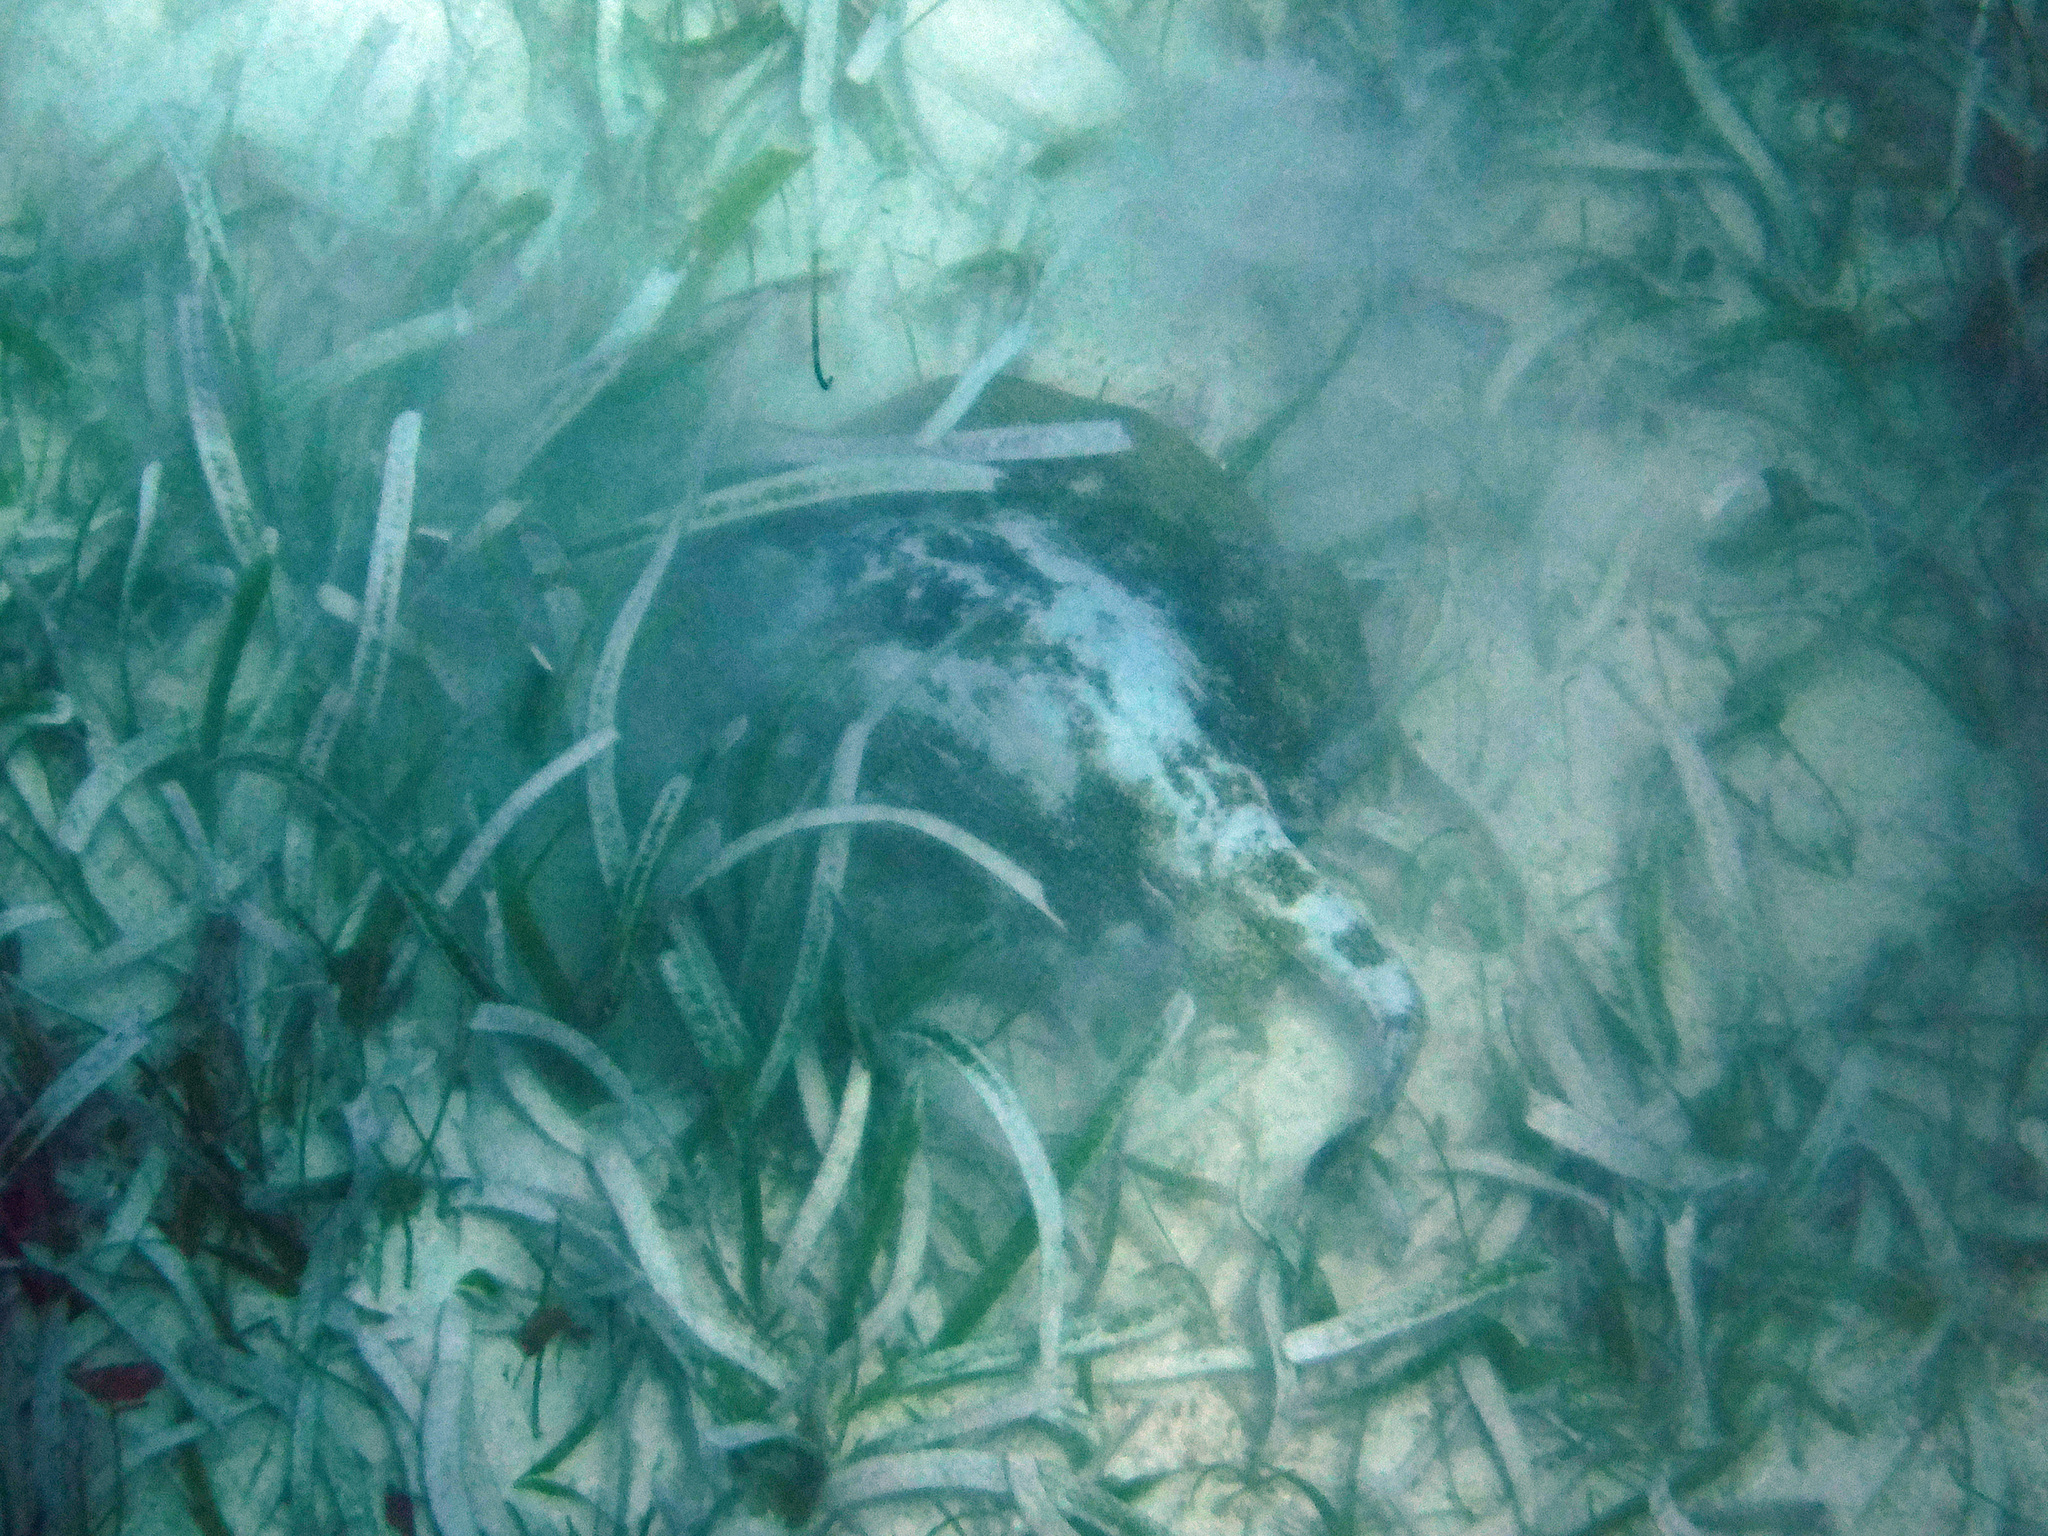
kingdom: Animalia
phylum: Chordata
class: Elasmobranchii
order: Myliobatiformes
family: Urotrygonidae
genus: Urobatis
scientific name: Urobatis jamaicensis
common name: Yellow stingray
